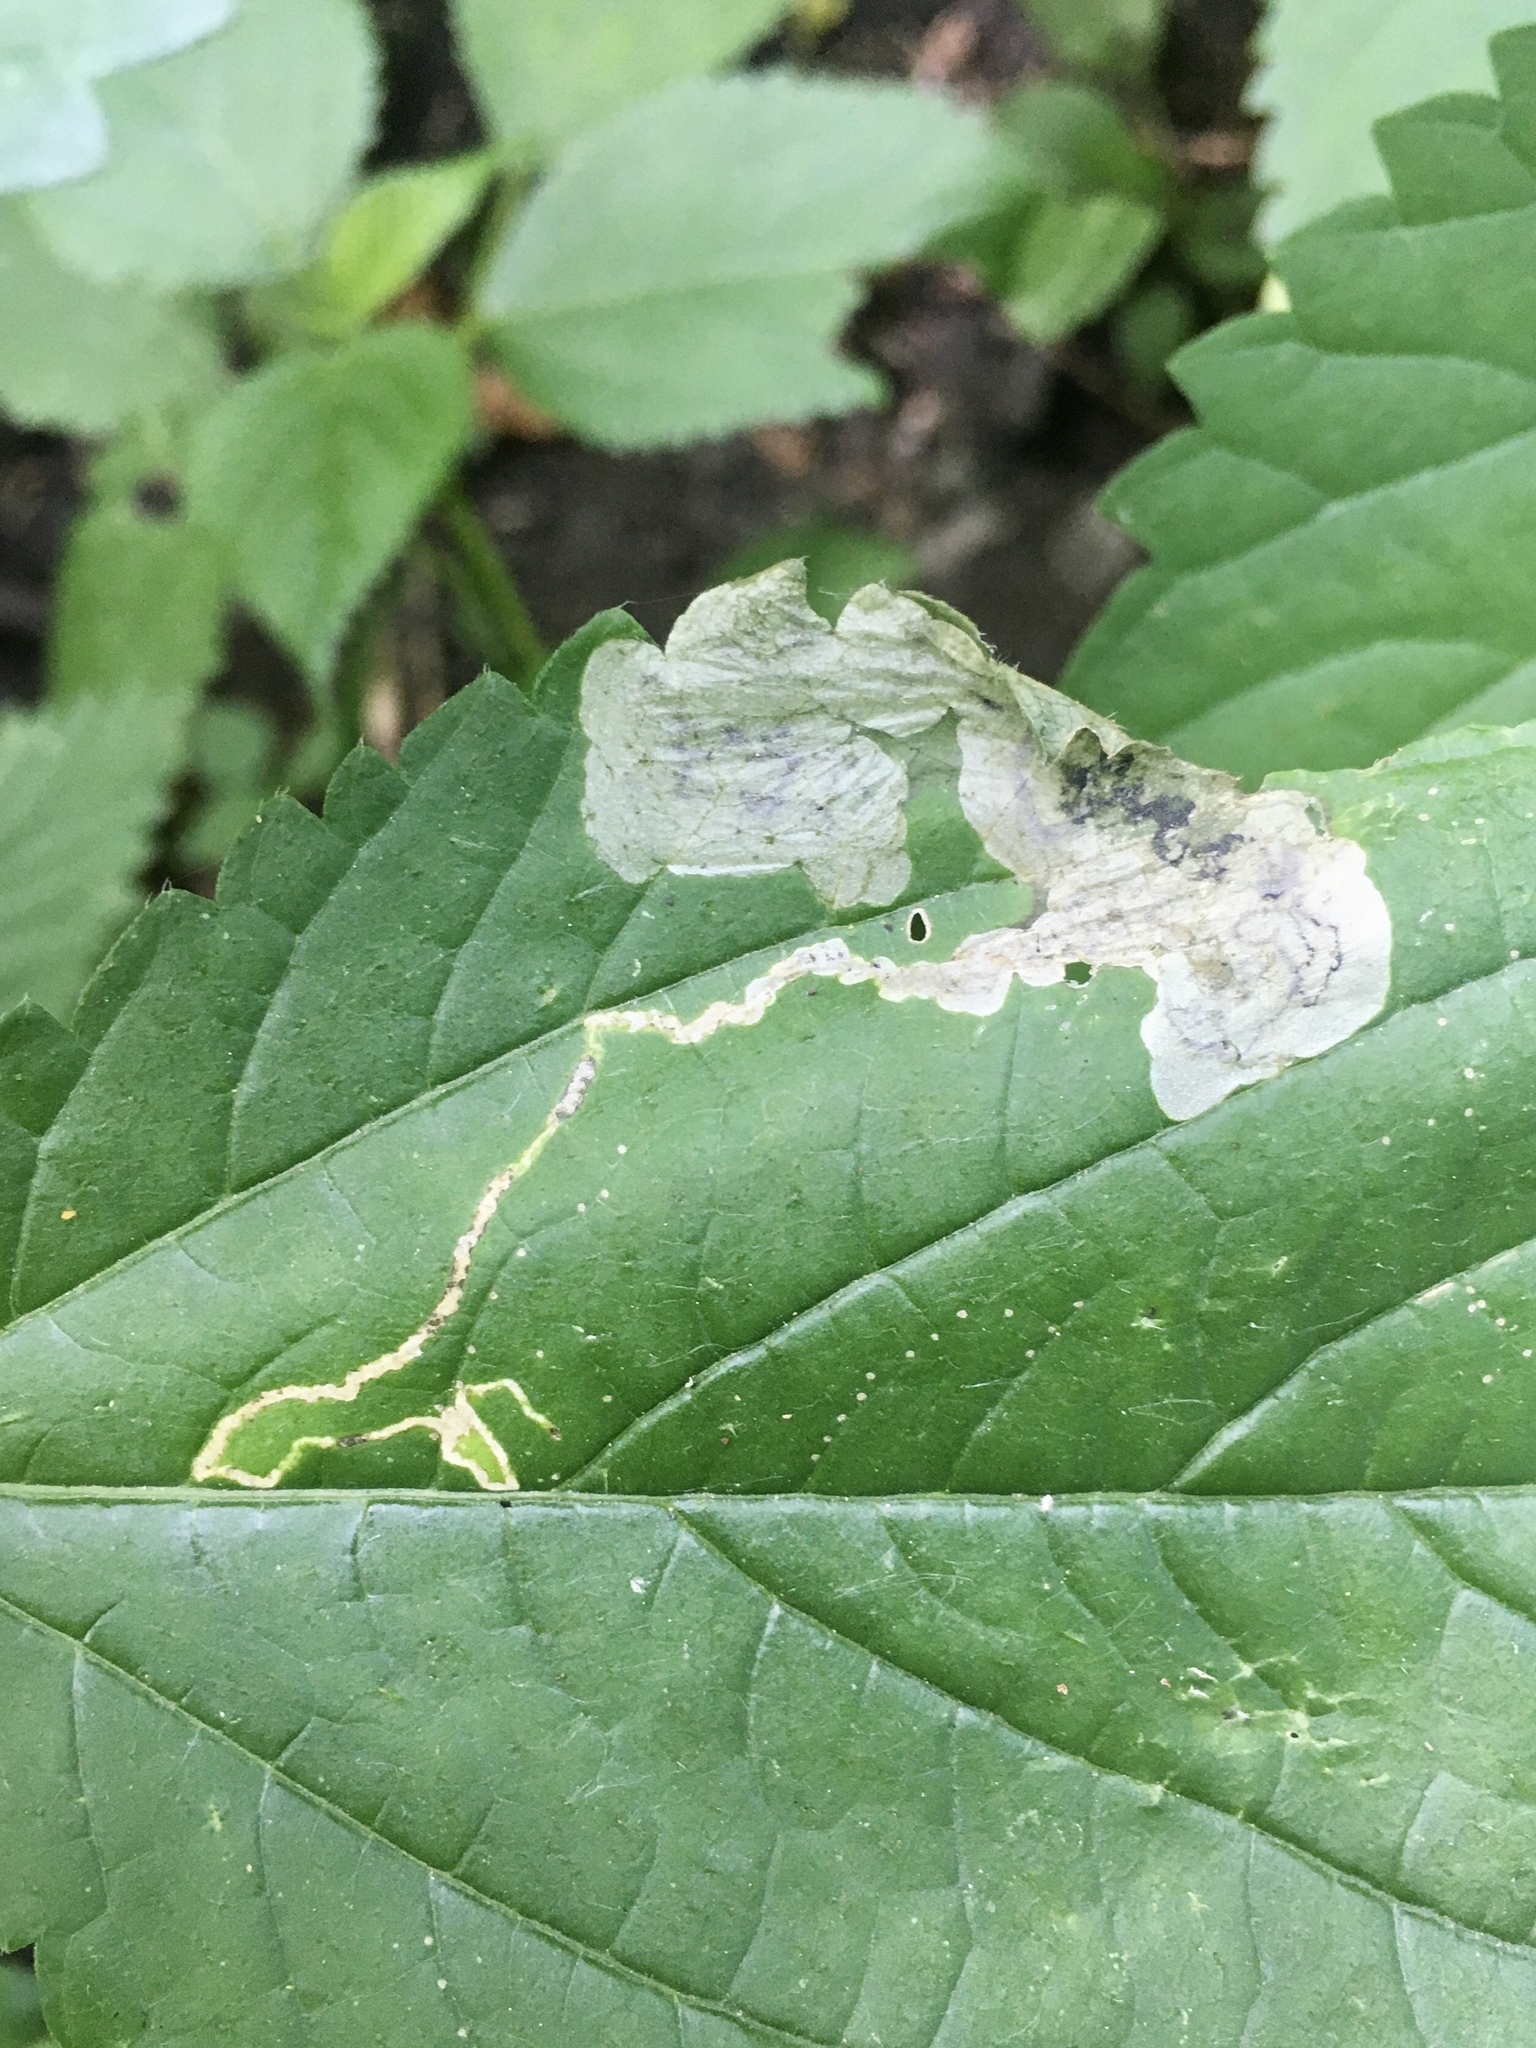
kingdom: Animalia
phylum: Arthropoda
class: Insecta
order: Diptera
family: Agromyzidae
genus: Agromyza
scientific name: Agromyza diversa
